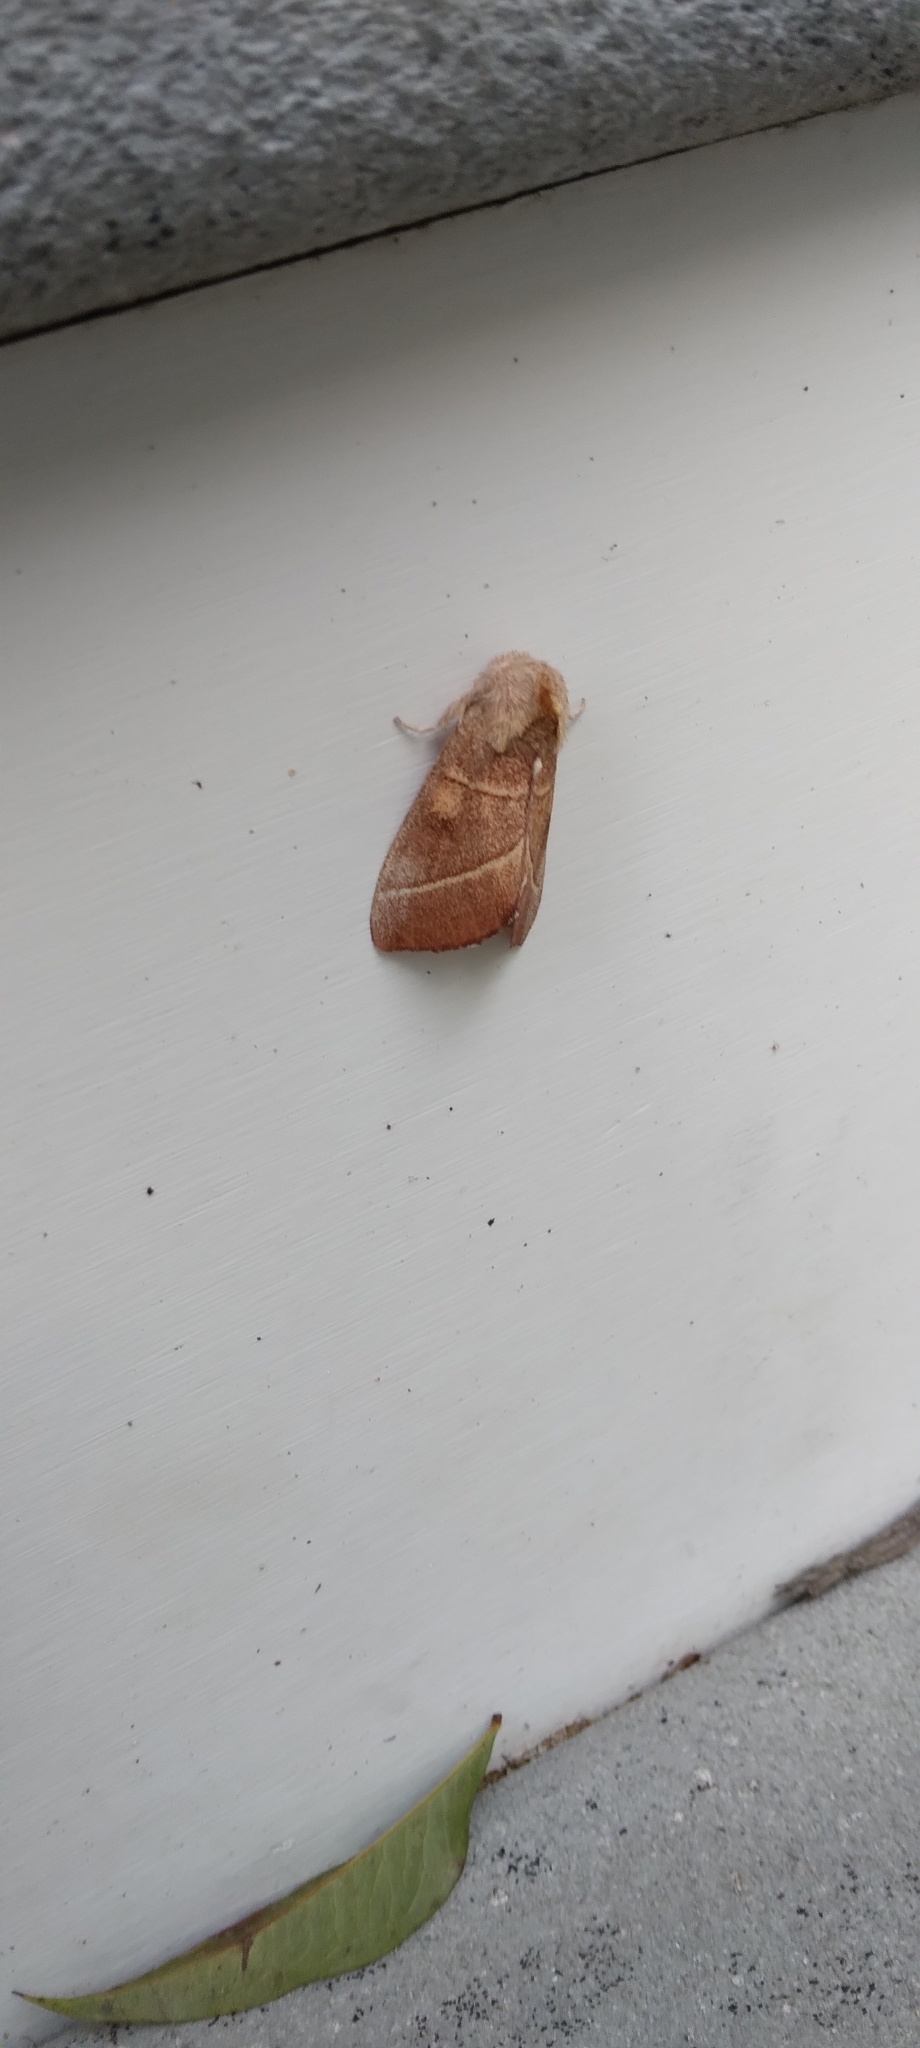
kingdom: Animalia
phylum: Arthropoda
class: Insecta
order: Lepidoptera
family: Notodontidae
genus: Nadata
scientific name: Nadata gibbosa
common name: White-dotted prominent
